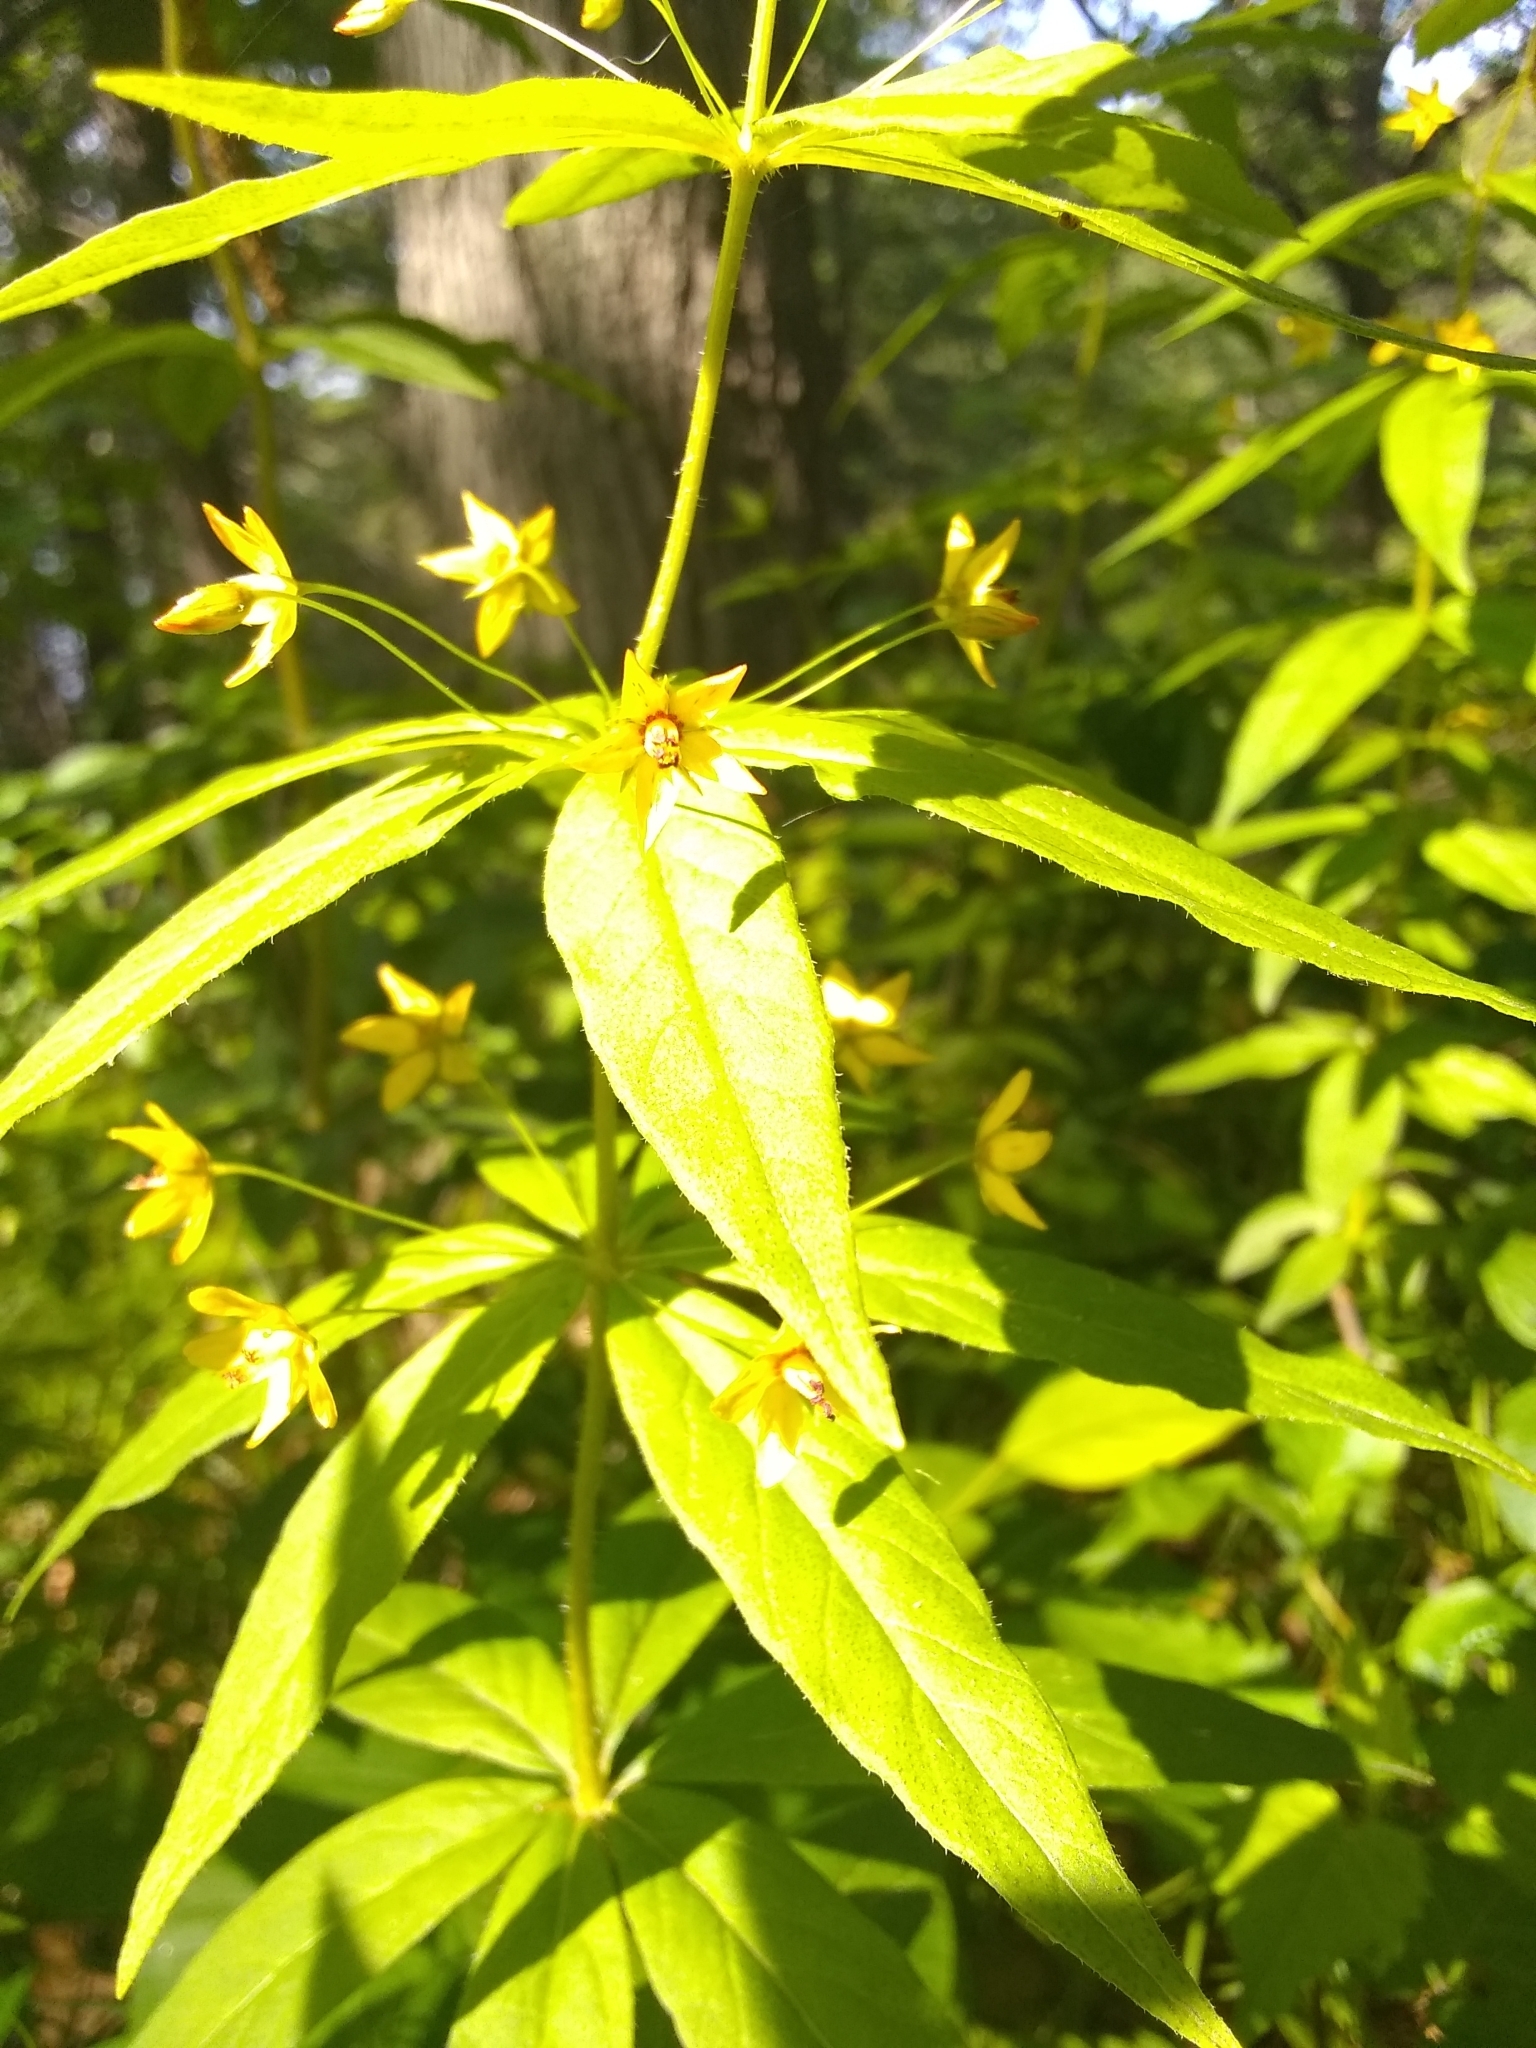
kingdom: Plantae
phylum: Tracheophyta
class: Magnoliopsida
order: Ericales
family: Primulaceae
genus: Lysimachia
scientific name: Lysimachia quadrifolia
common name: Whorled loosestrife
